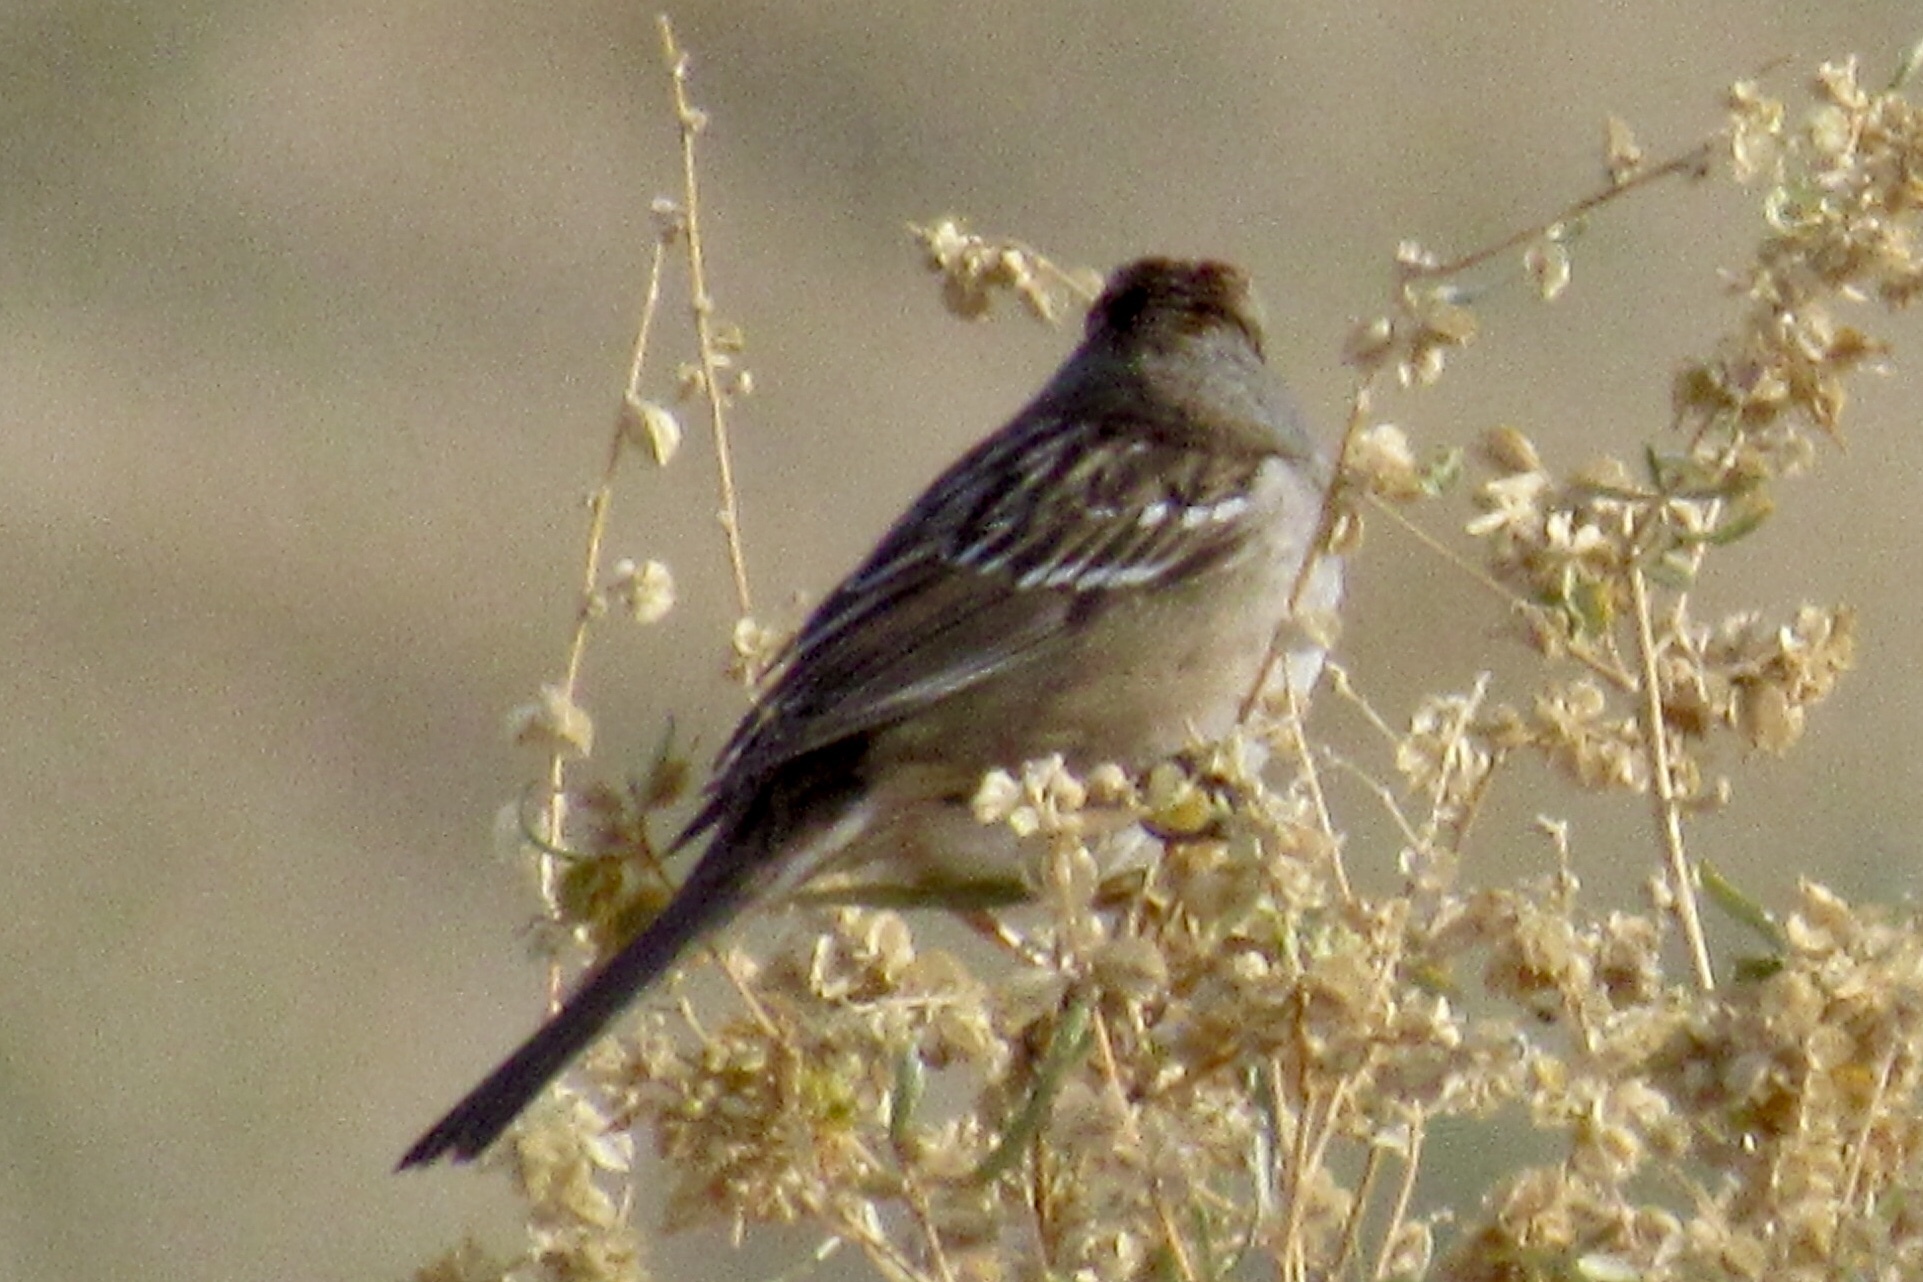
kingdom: Animalia
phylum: Chordata
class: Aves
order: Passeriformes
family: Passerellidae
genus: Zonotrichia
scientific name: Zonotrichia leucophrys
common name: White-crowned sparrow
